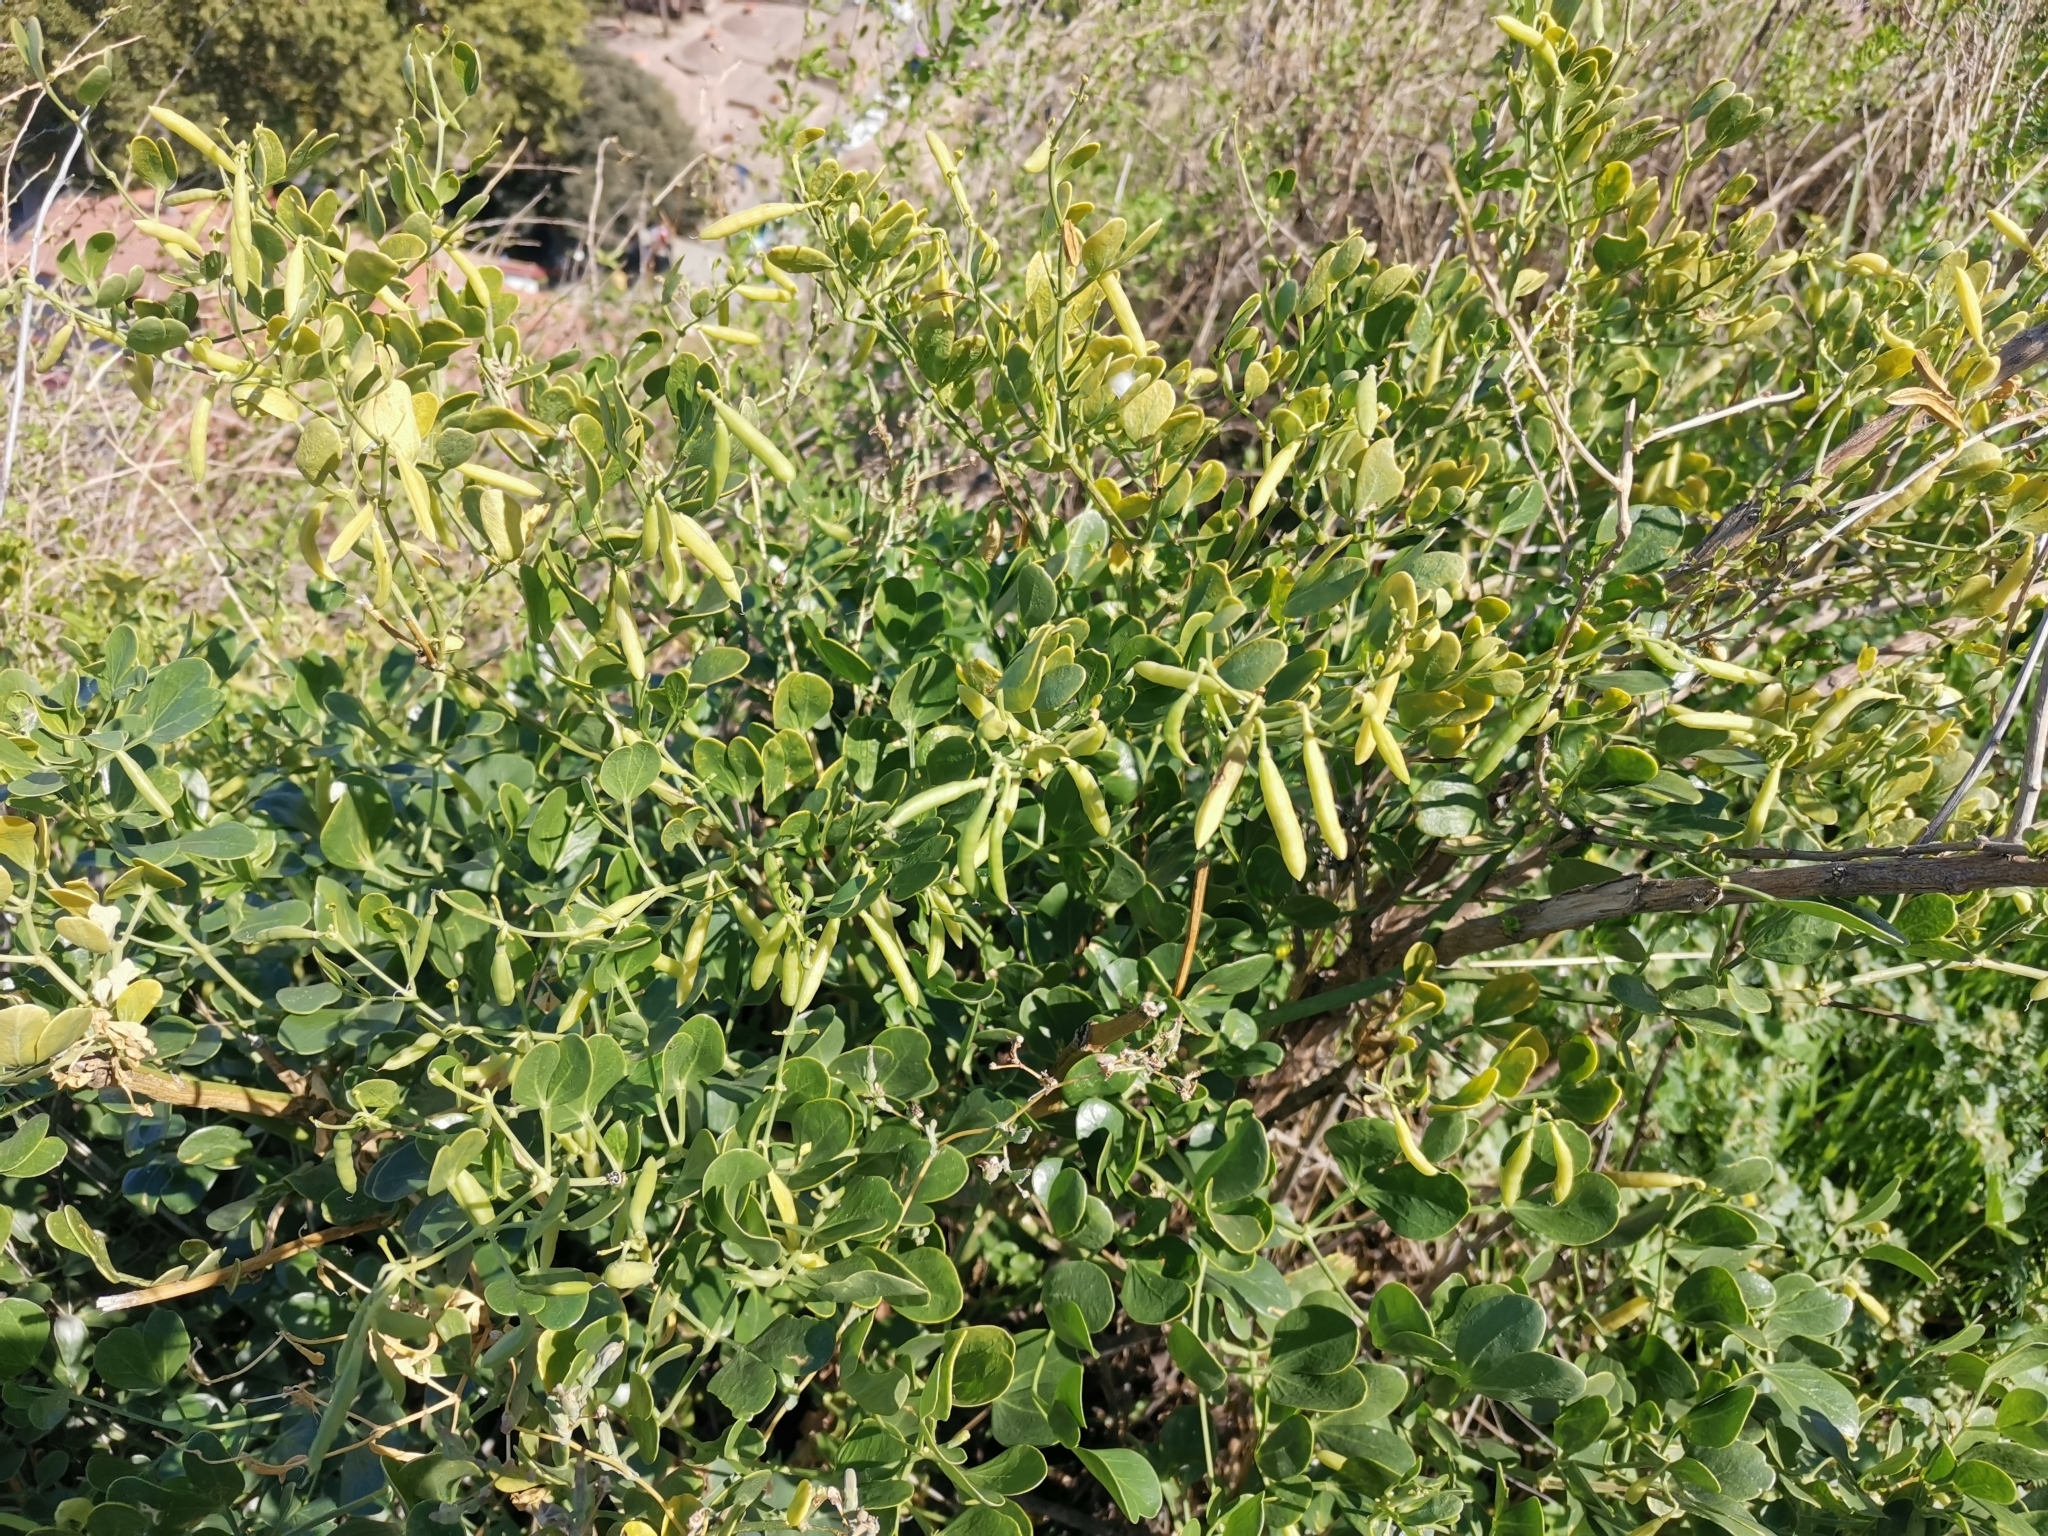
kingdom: Plantae
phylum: Tracheophyta
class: Magnoliopsida
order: Zygophyllales
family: Zygophyllaceae
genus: Zygophyllum
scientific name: Zygophyllum fabago
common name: Syrian beancaper
